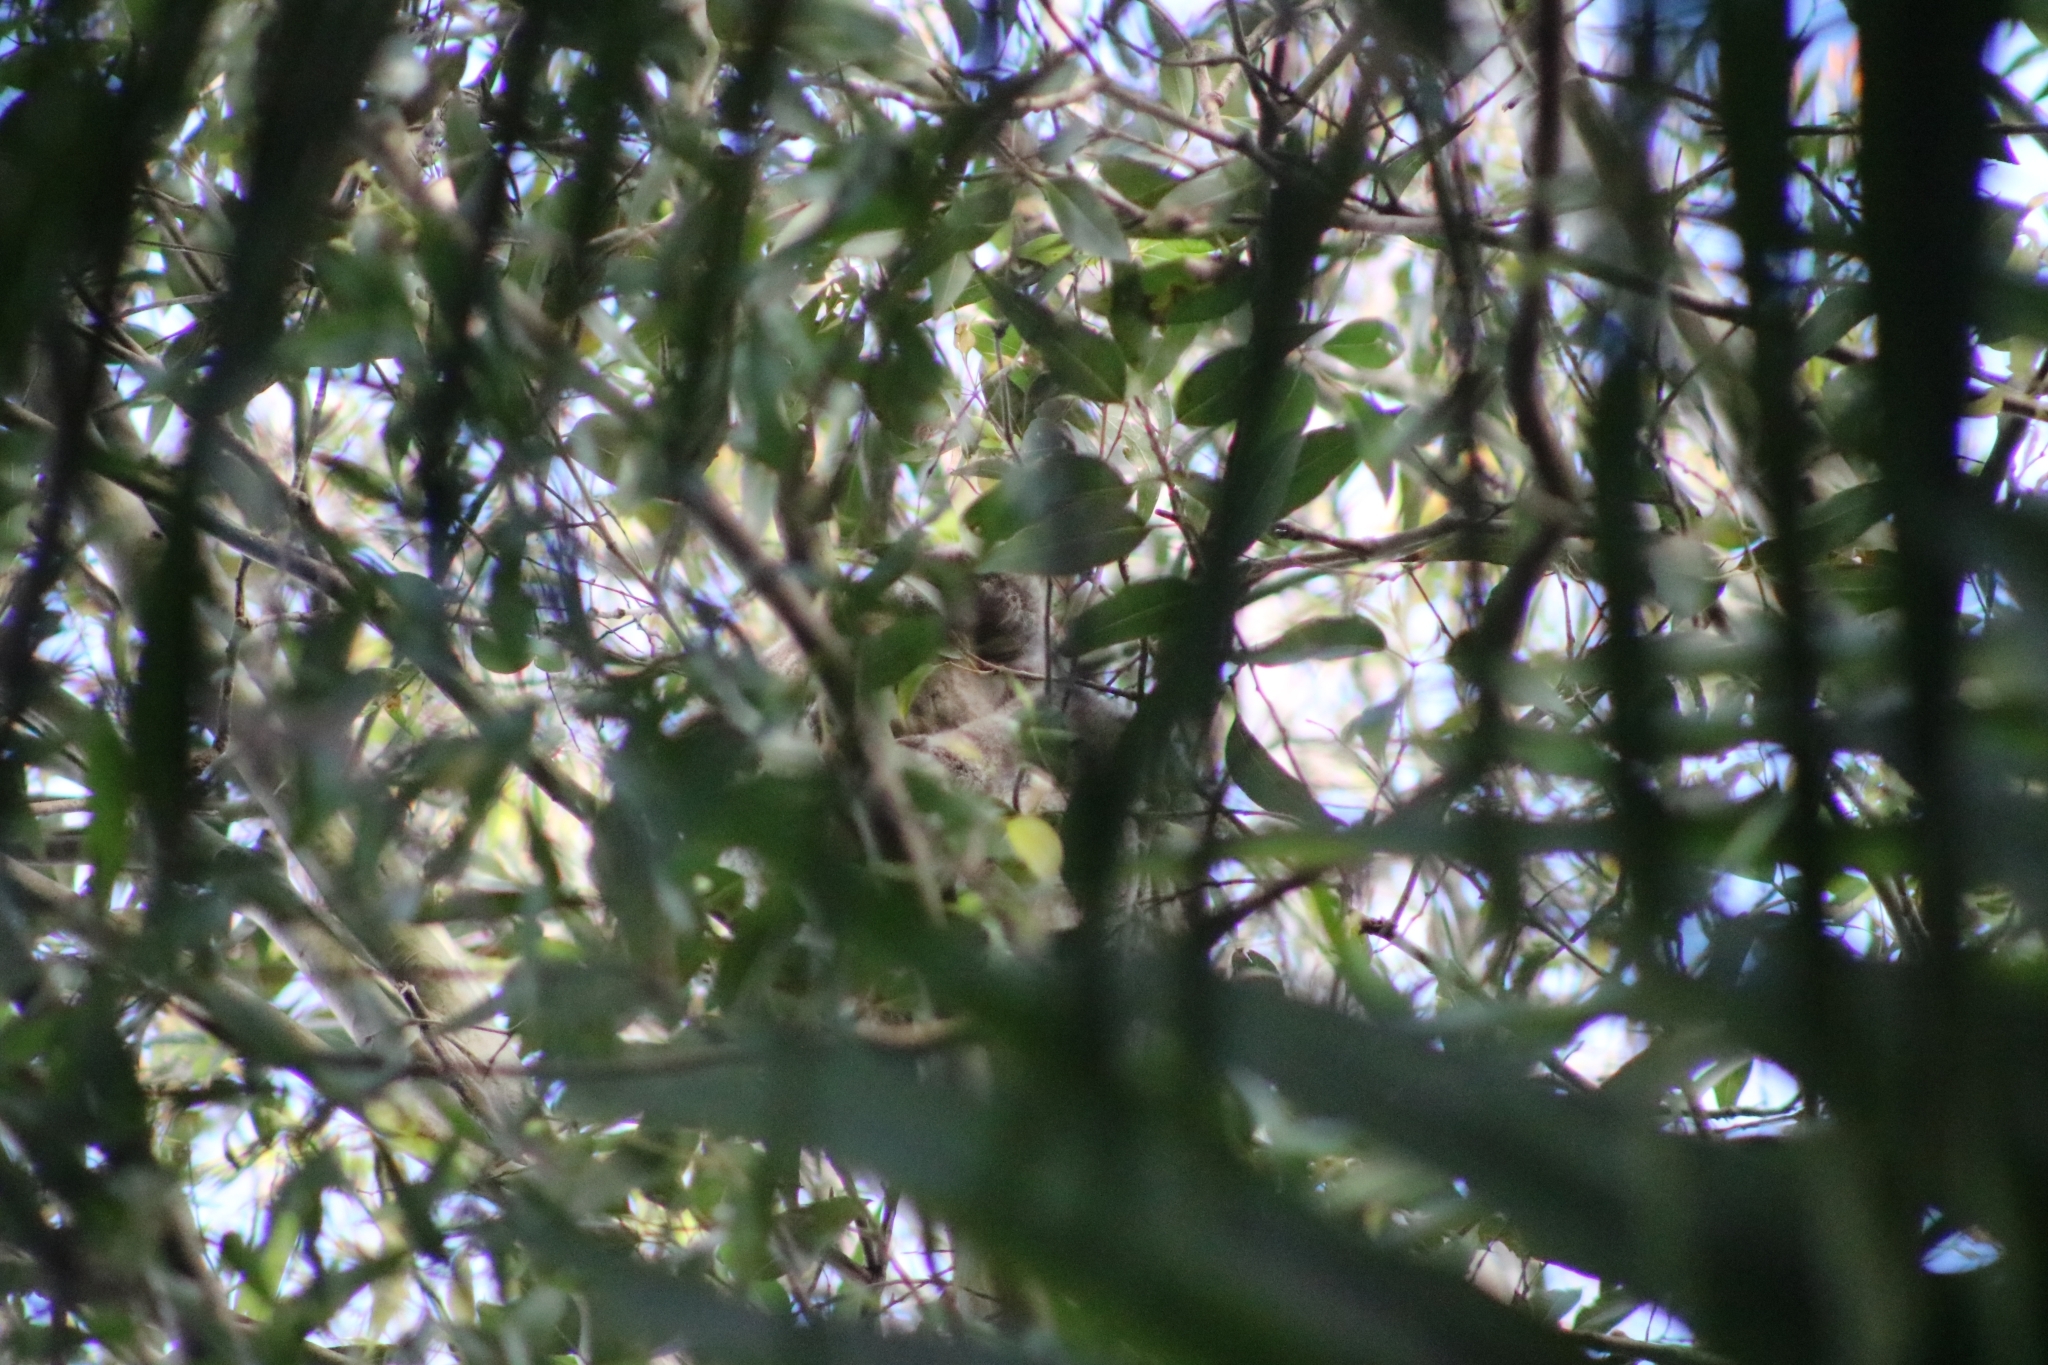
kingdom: Animalia
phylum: Chordata
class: Mammalia
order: Diprotodontia
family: Phascolarctidae
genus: Phascolarctos
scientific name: Phascolarctos cinereus
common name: Koala
